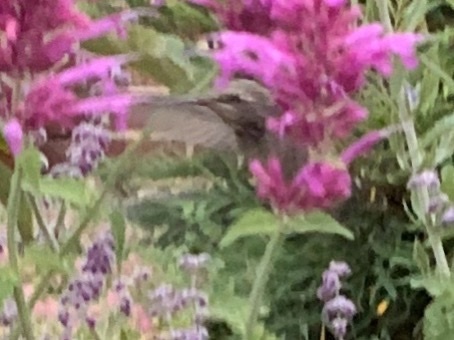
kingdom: Animalia
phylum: Chordata
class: Aves
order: Apodiformes
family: Trochilidae
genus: Calypte
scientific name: Calypte anna
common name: Anna's hummingbird
